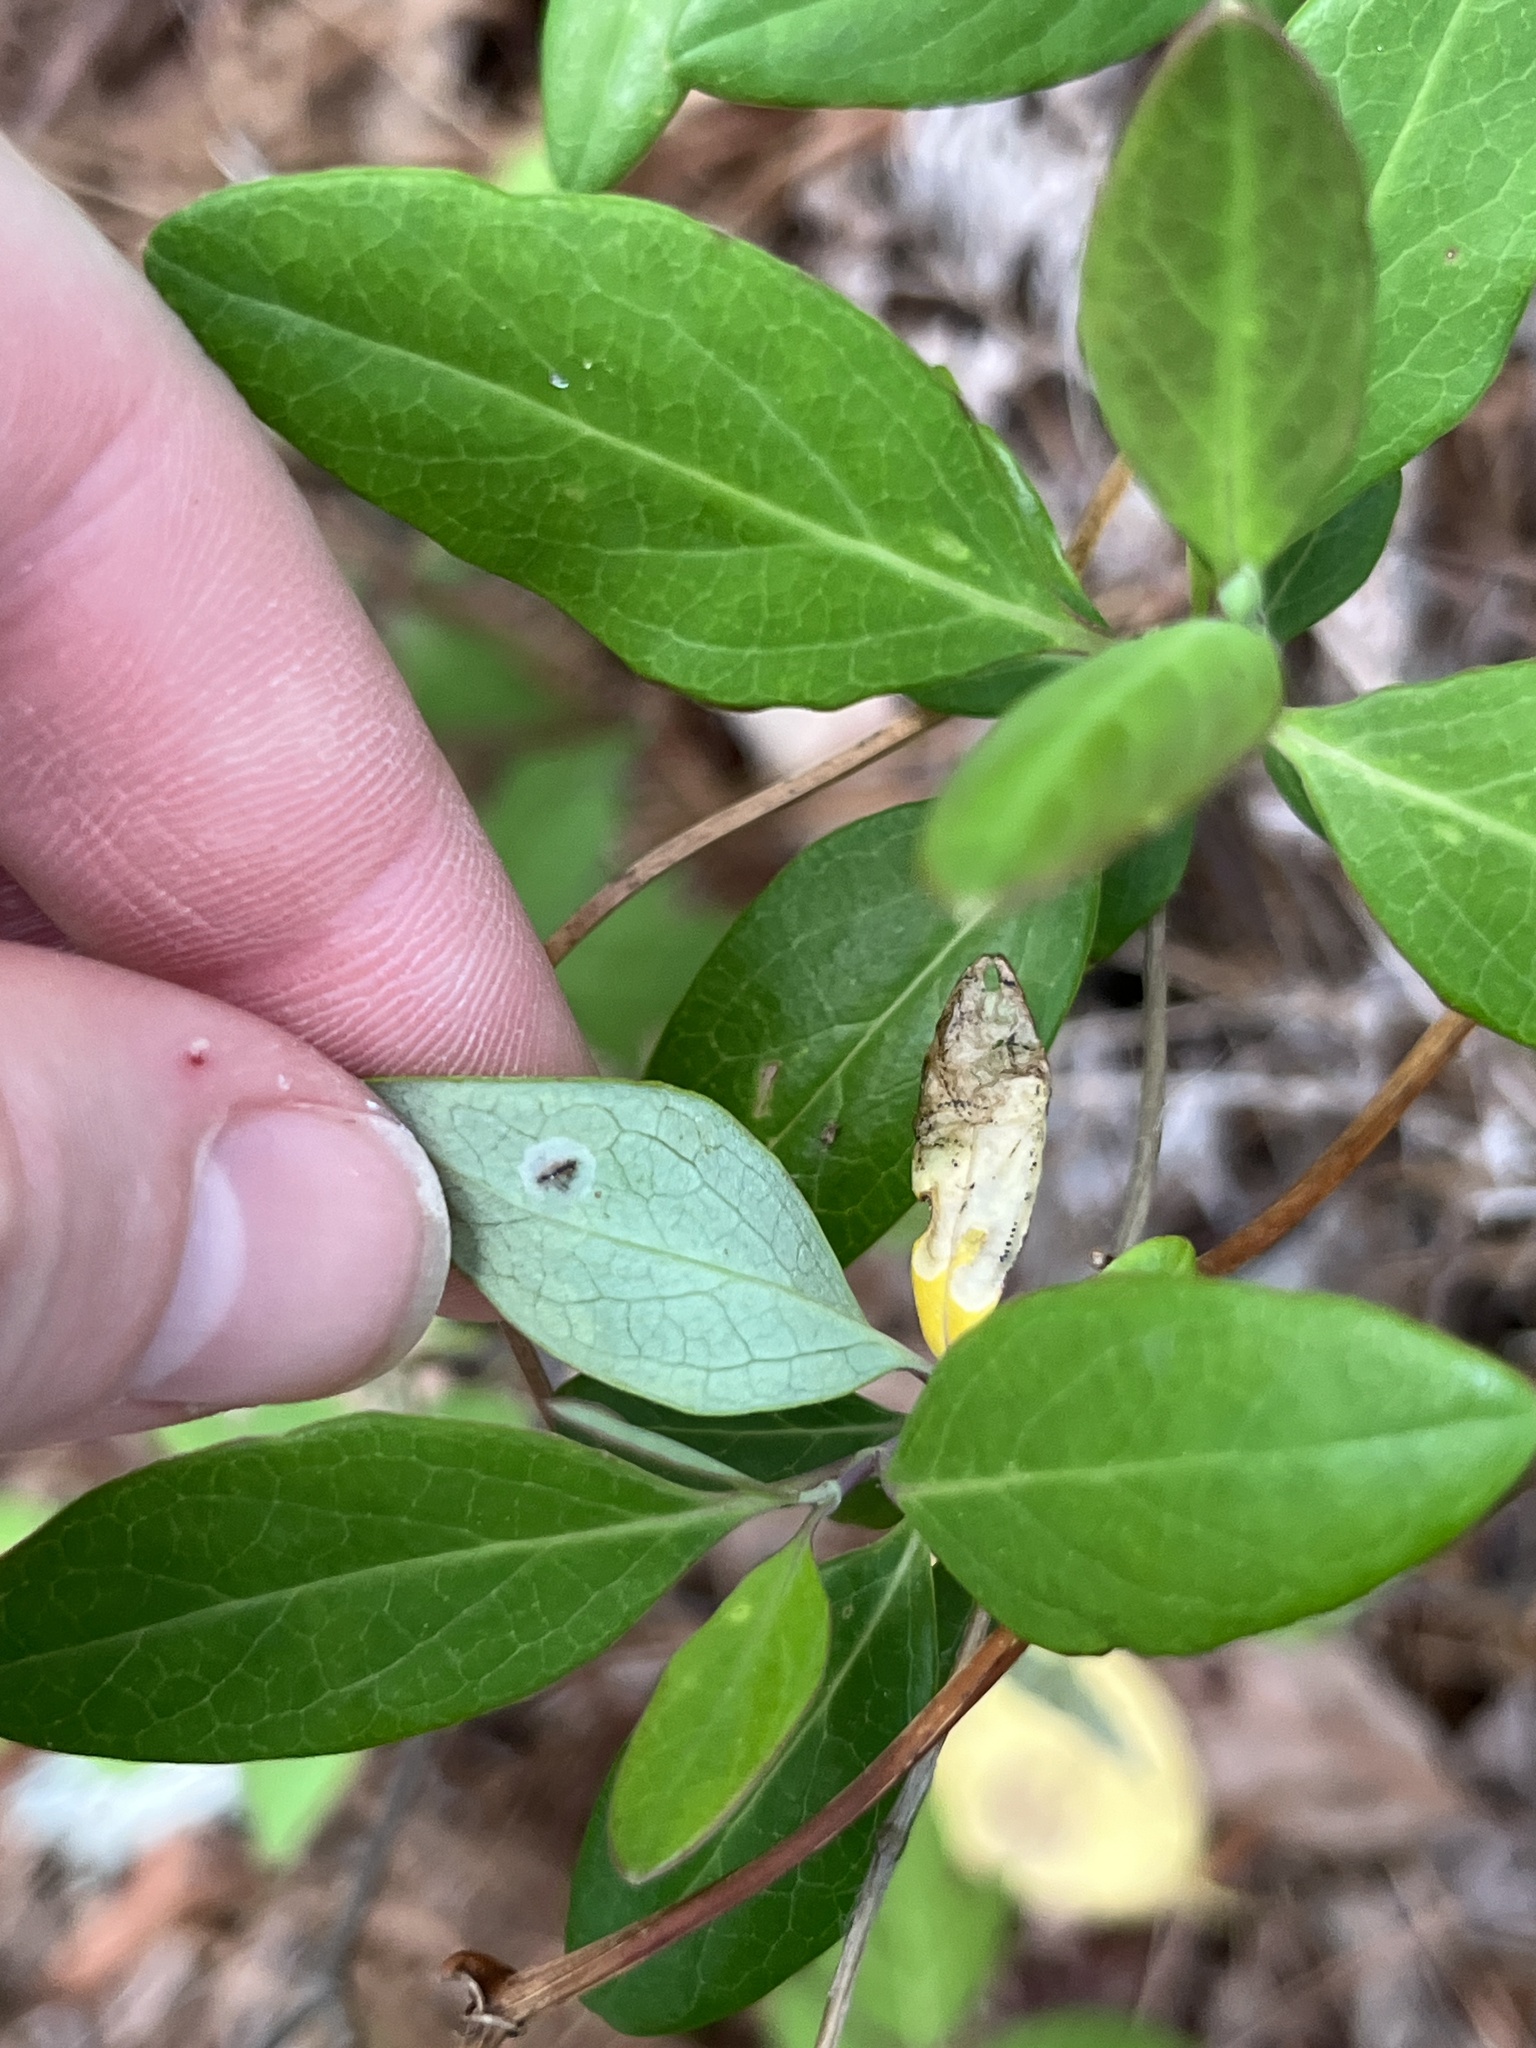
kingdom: Animalia
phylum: Arthropoda
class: Insecta
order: Diptera
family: Agromyzidae
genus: Phytomyza
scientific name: Phytomyza sempervirentis
